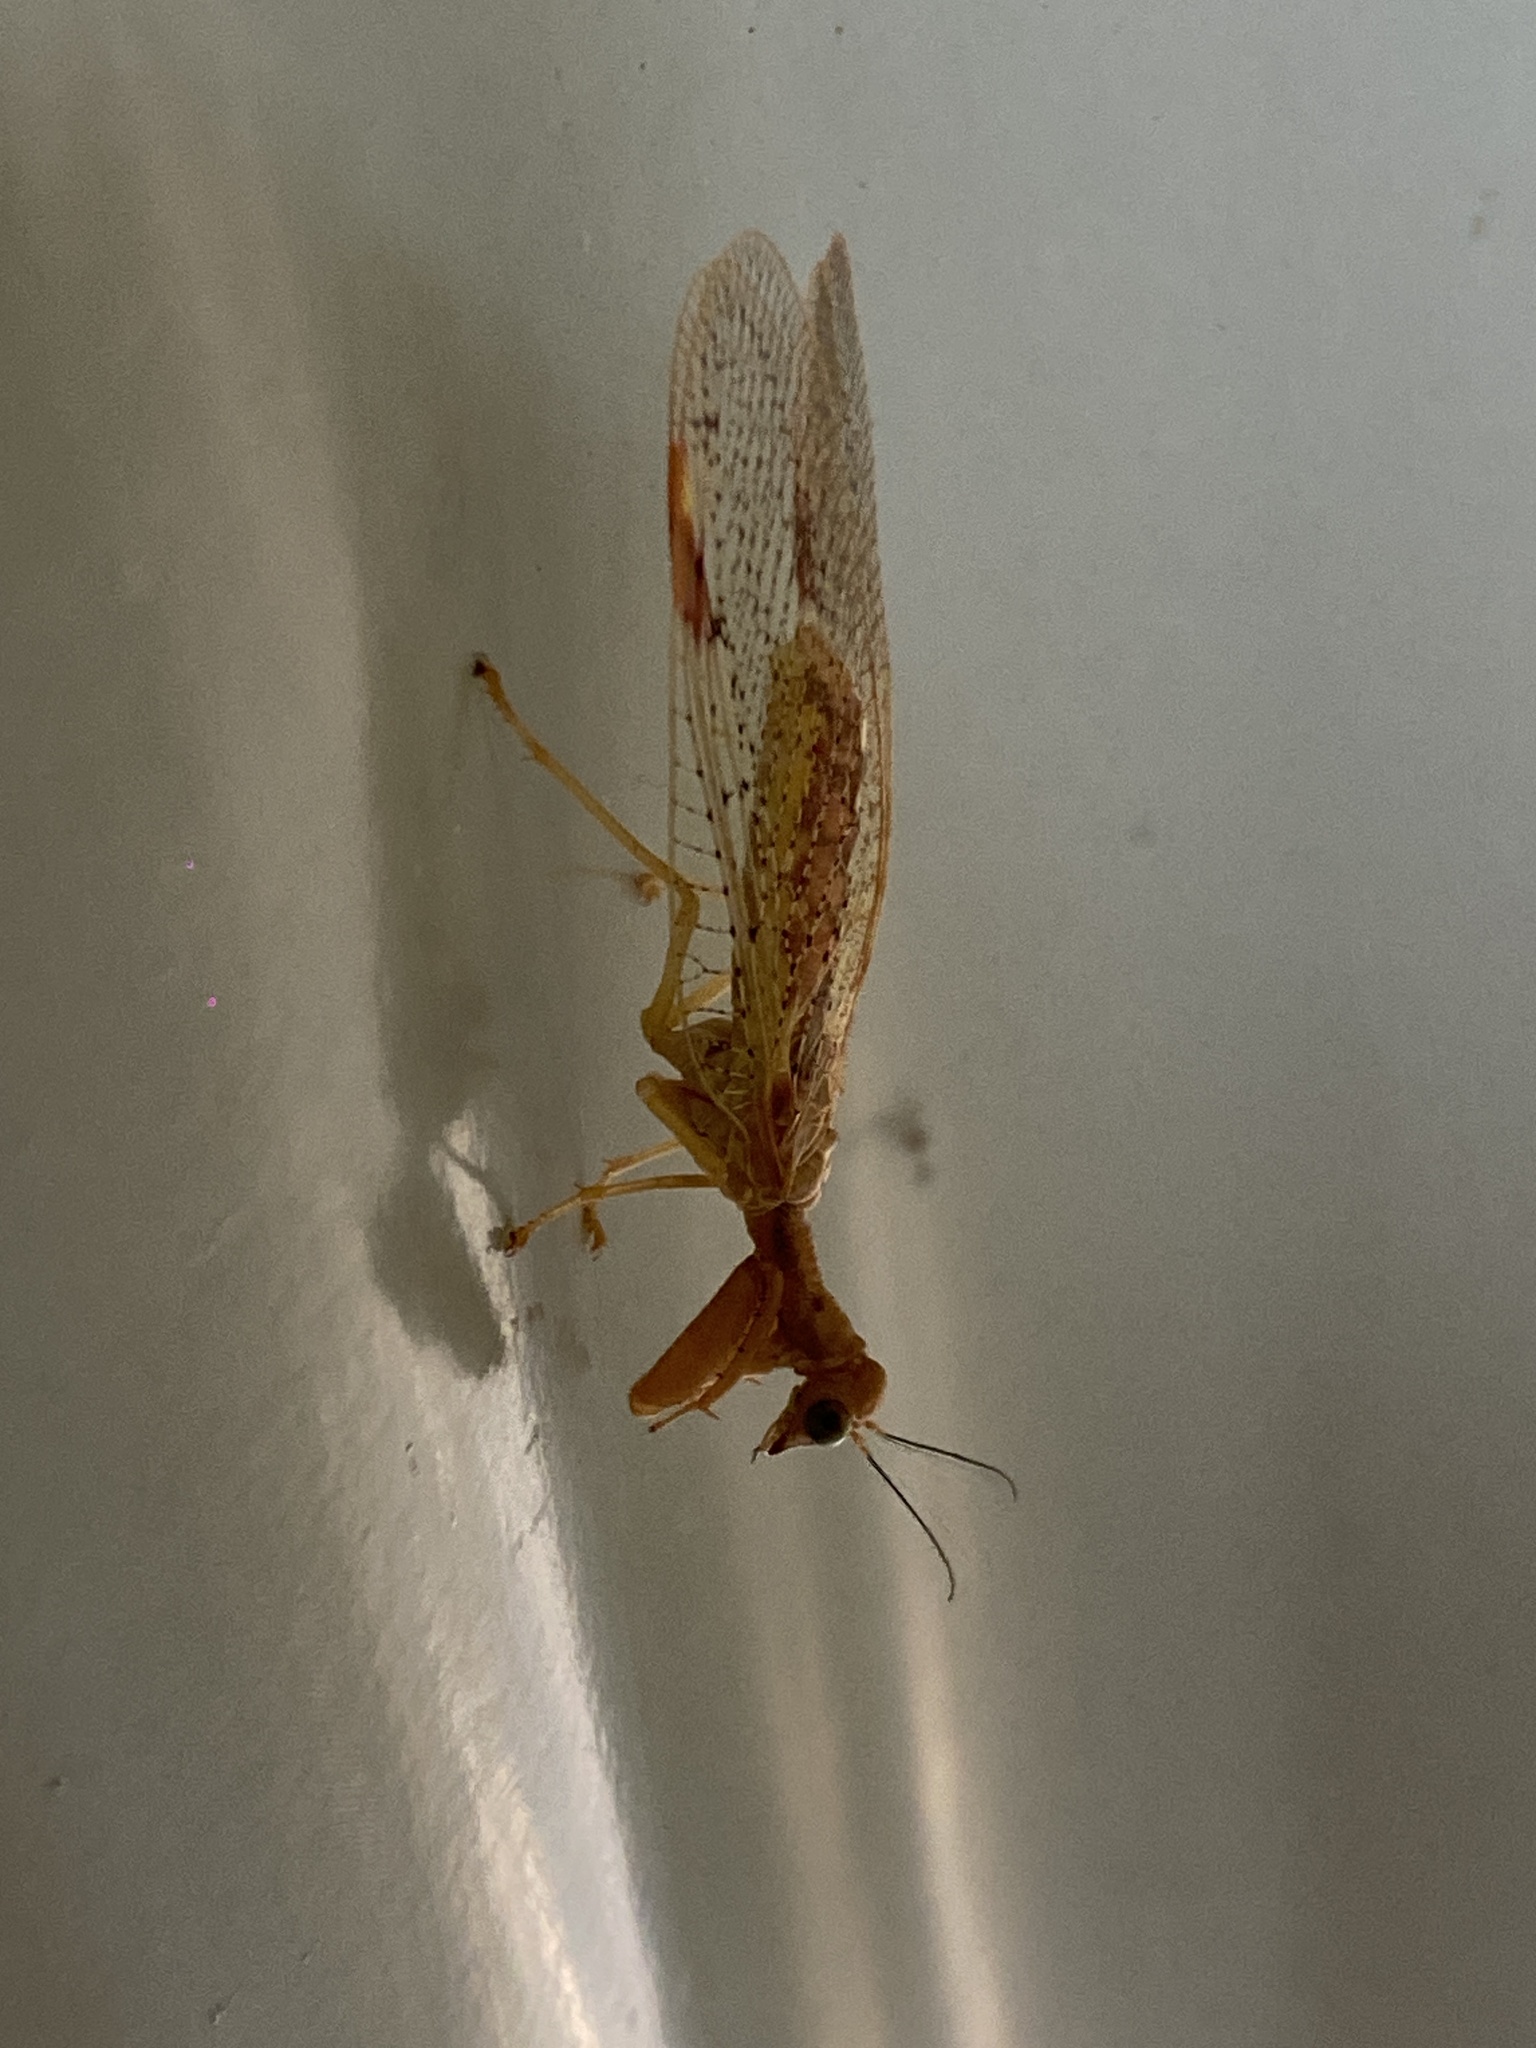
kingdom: Animalia
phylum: Arthropoda
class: Insecta
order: Neuroptera
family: Mantispidae
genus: Ditaxis
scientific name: Ditaxis biseriata
